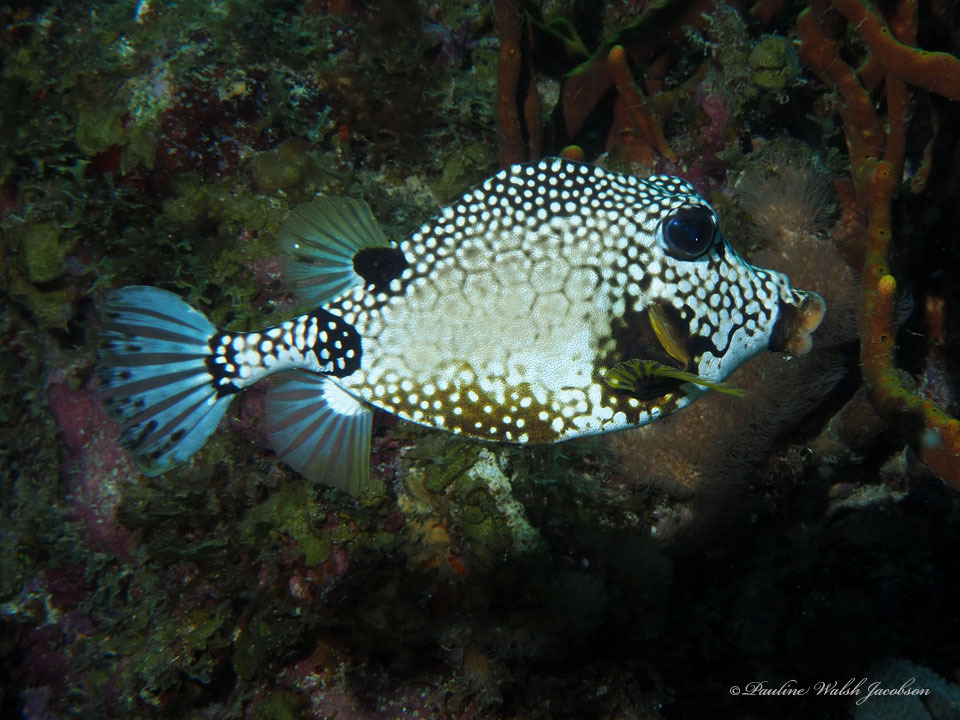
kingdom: Animalia
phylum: Chordata
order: Tetraodontiformes
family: Ostraciidae
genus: Lactophrys
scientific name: Lactophrys triqueter
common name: Smooth trunkfish
